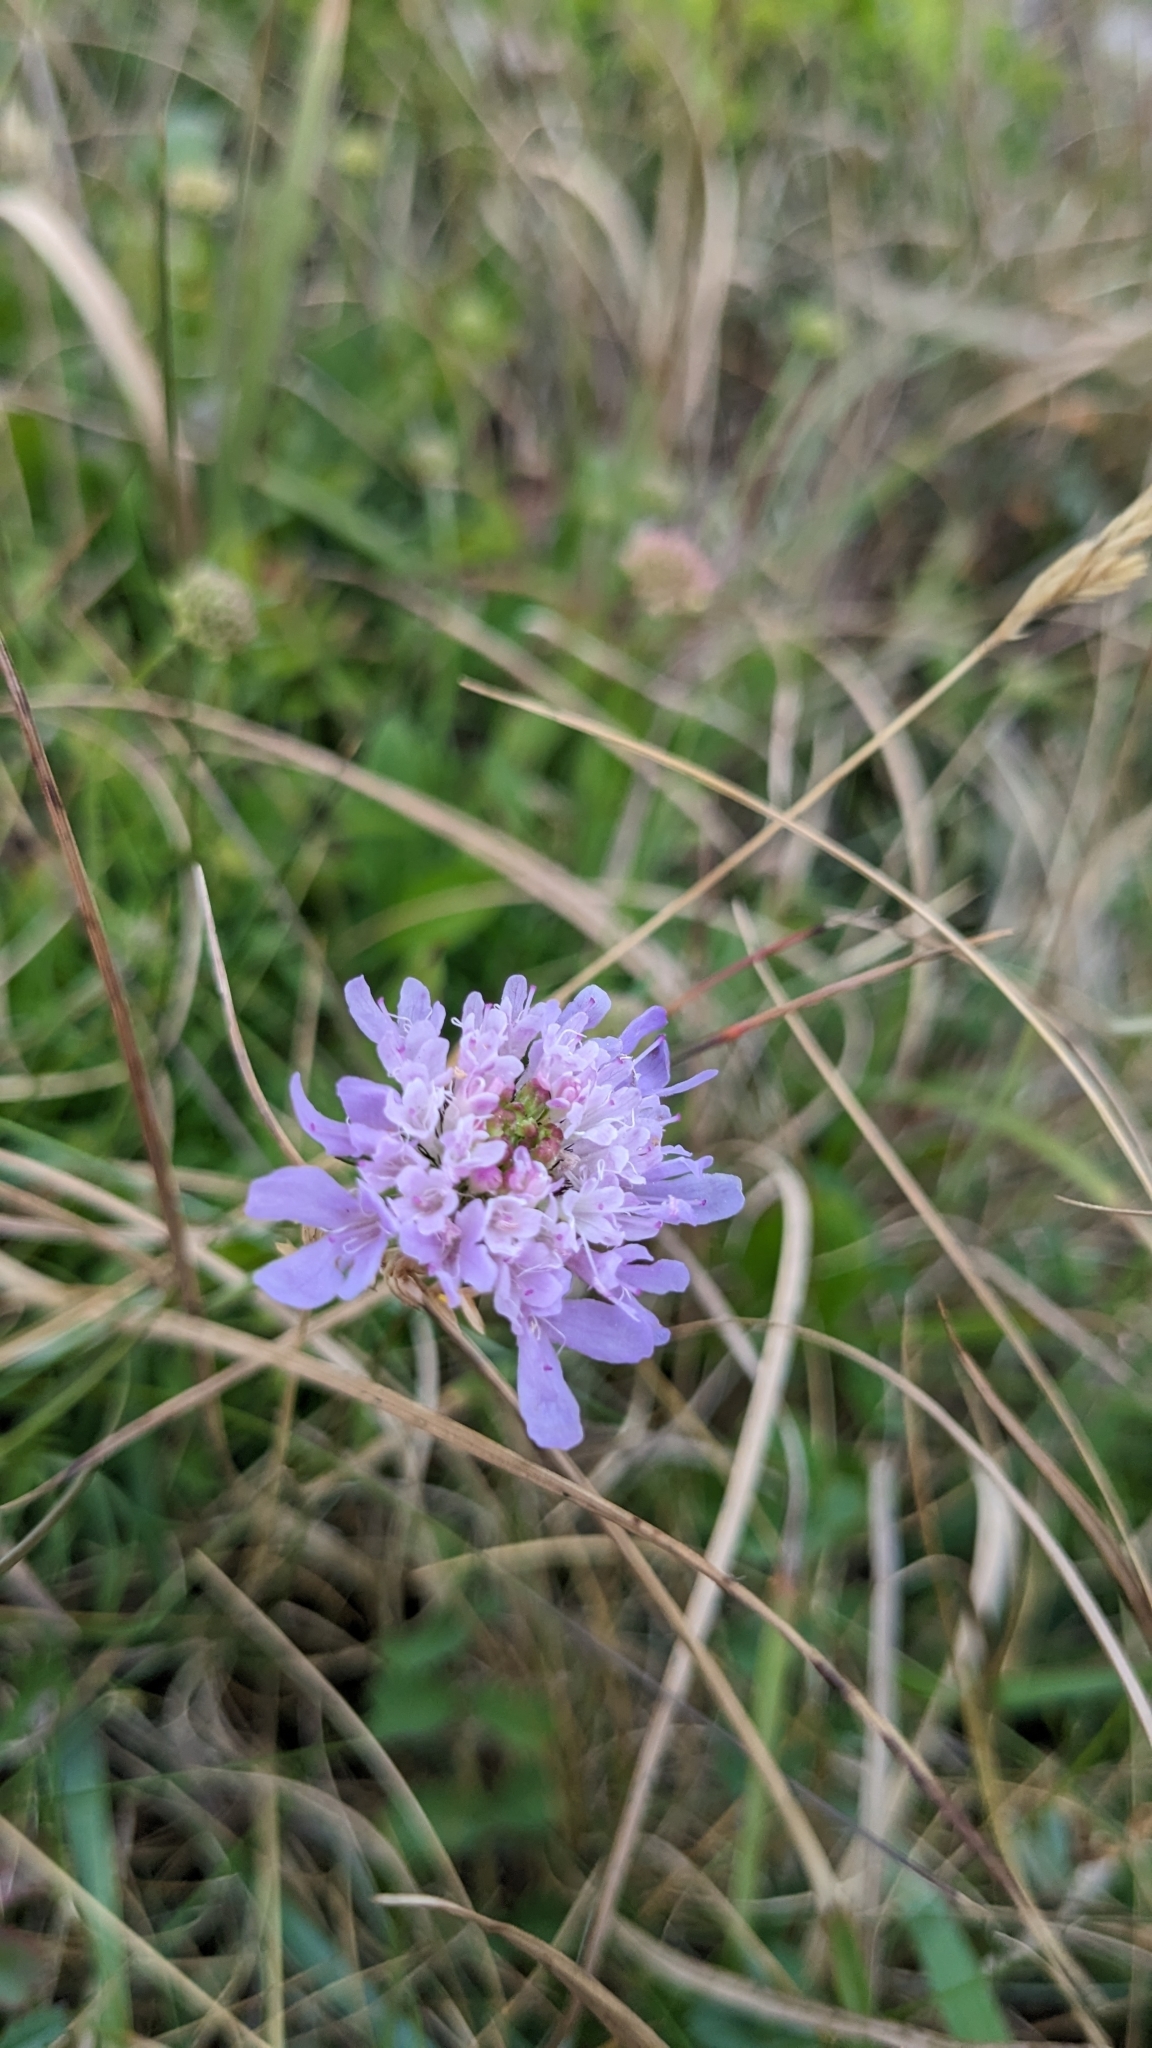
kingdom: Plantae
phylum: Tracheophyta
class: Magnoliopsida
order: Dipsacales
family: Caprifoliaceae
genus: Knautia
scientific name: Knautia arvensis
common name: Field scabiosa
